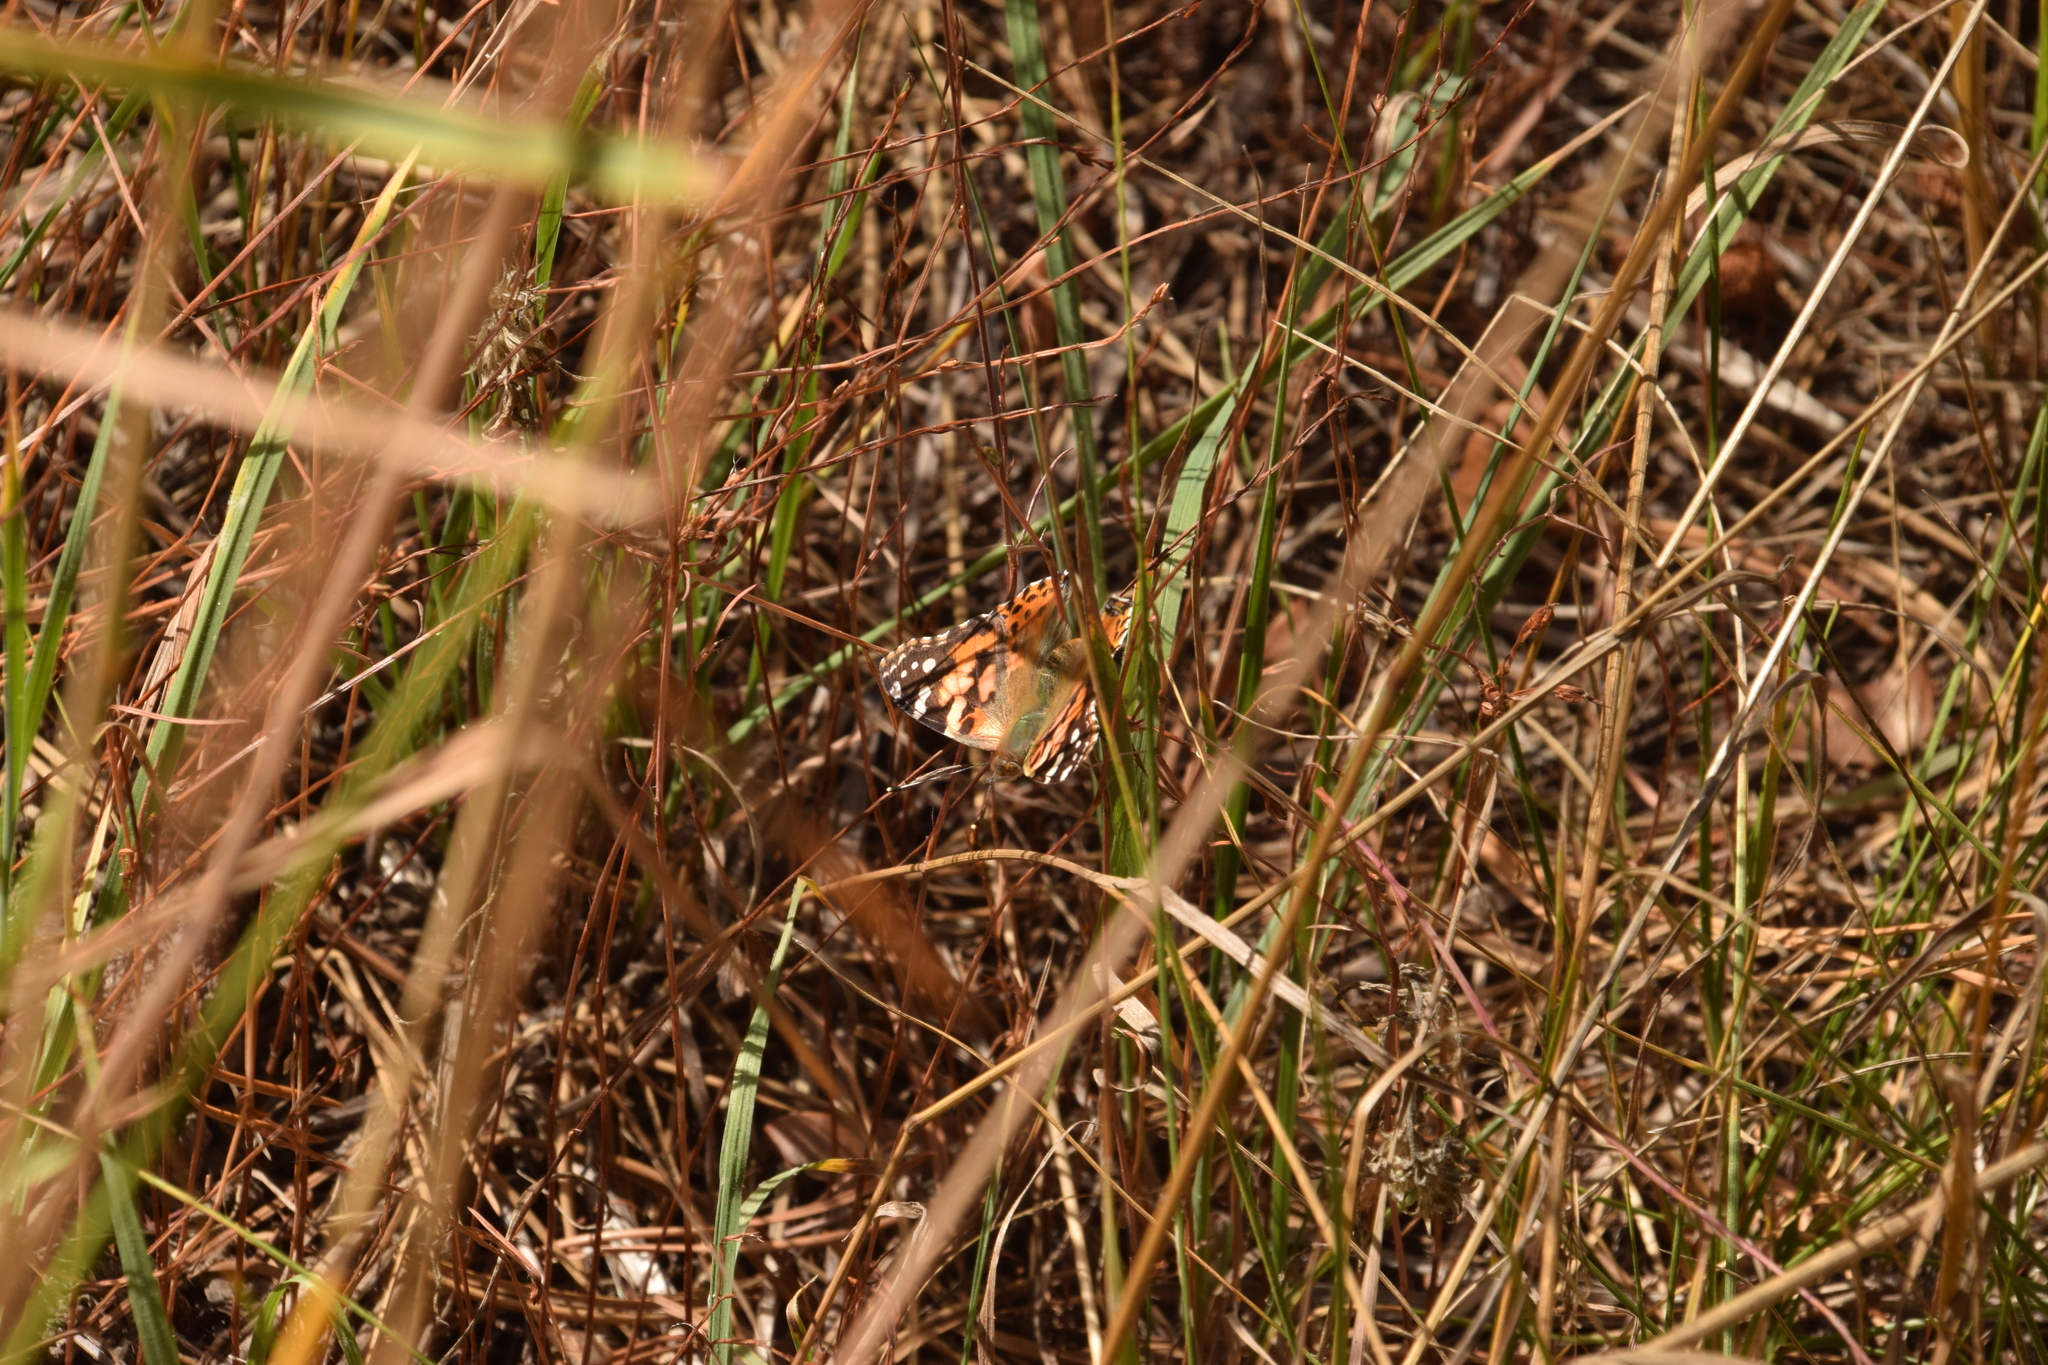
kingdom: Animalia
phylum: Arthropoda
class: Insecta
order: Lepidoptera
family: Nymphalidae
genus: Vanessa
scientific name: Vanessa cardui
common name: Painted lady
